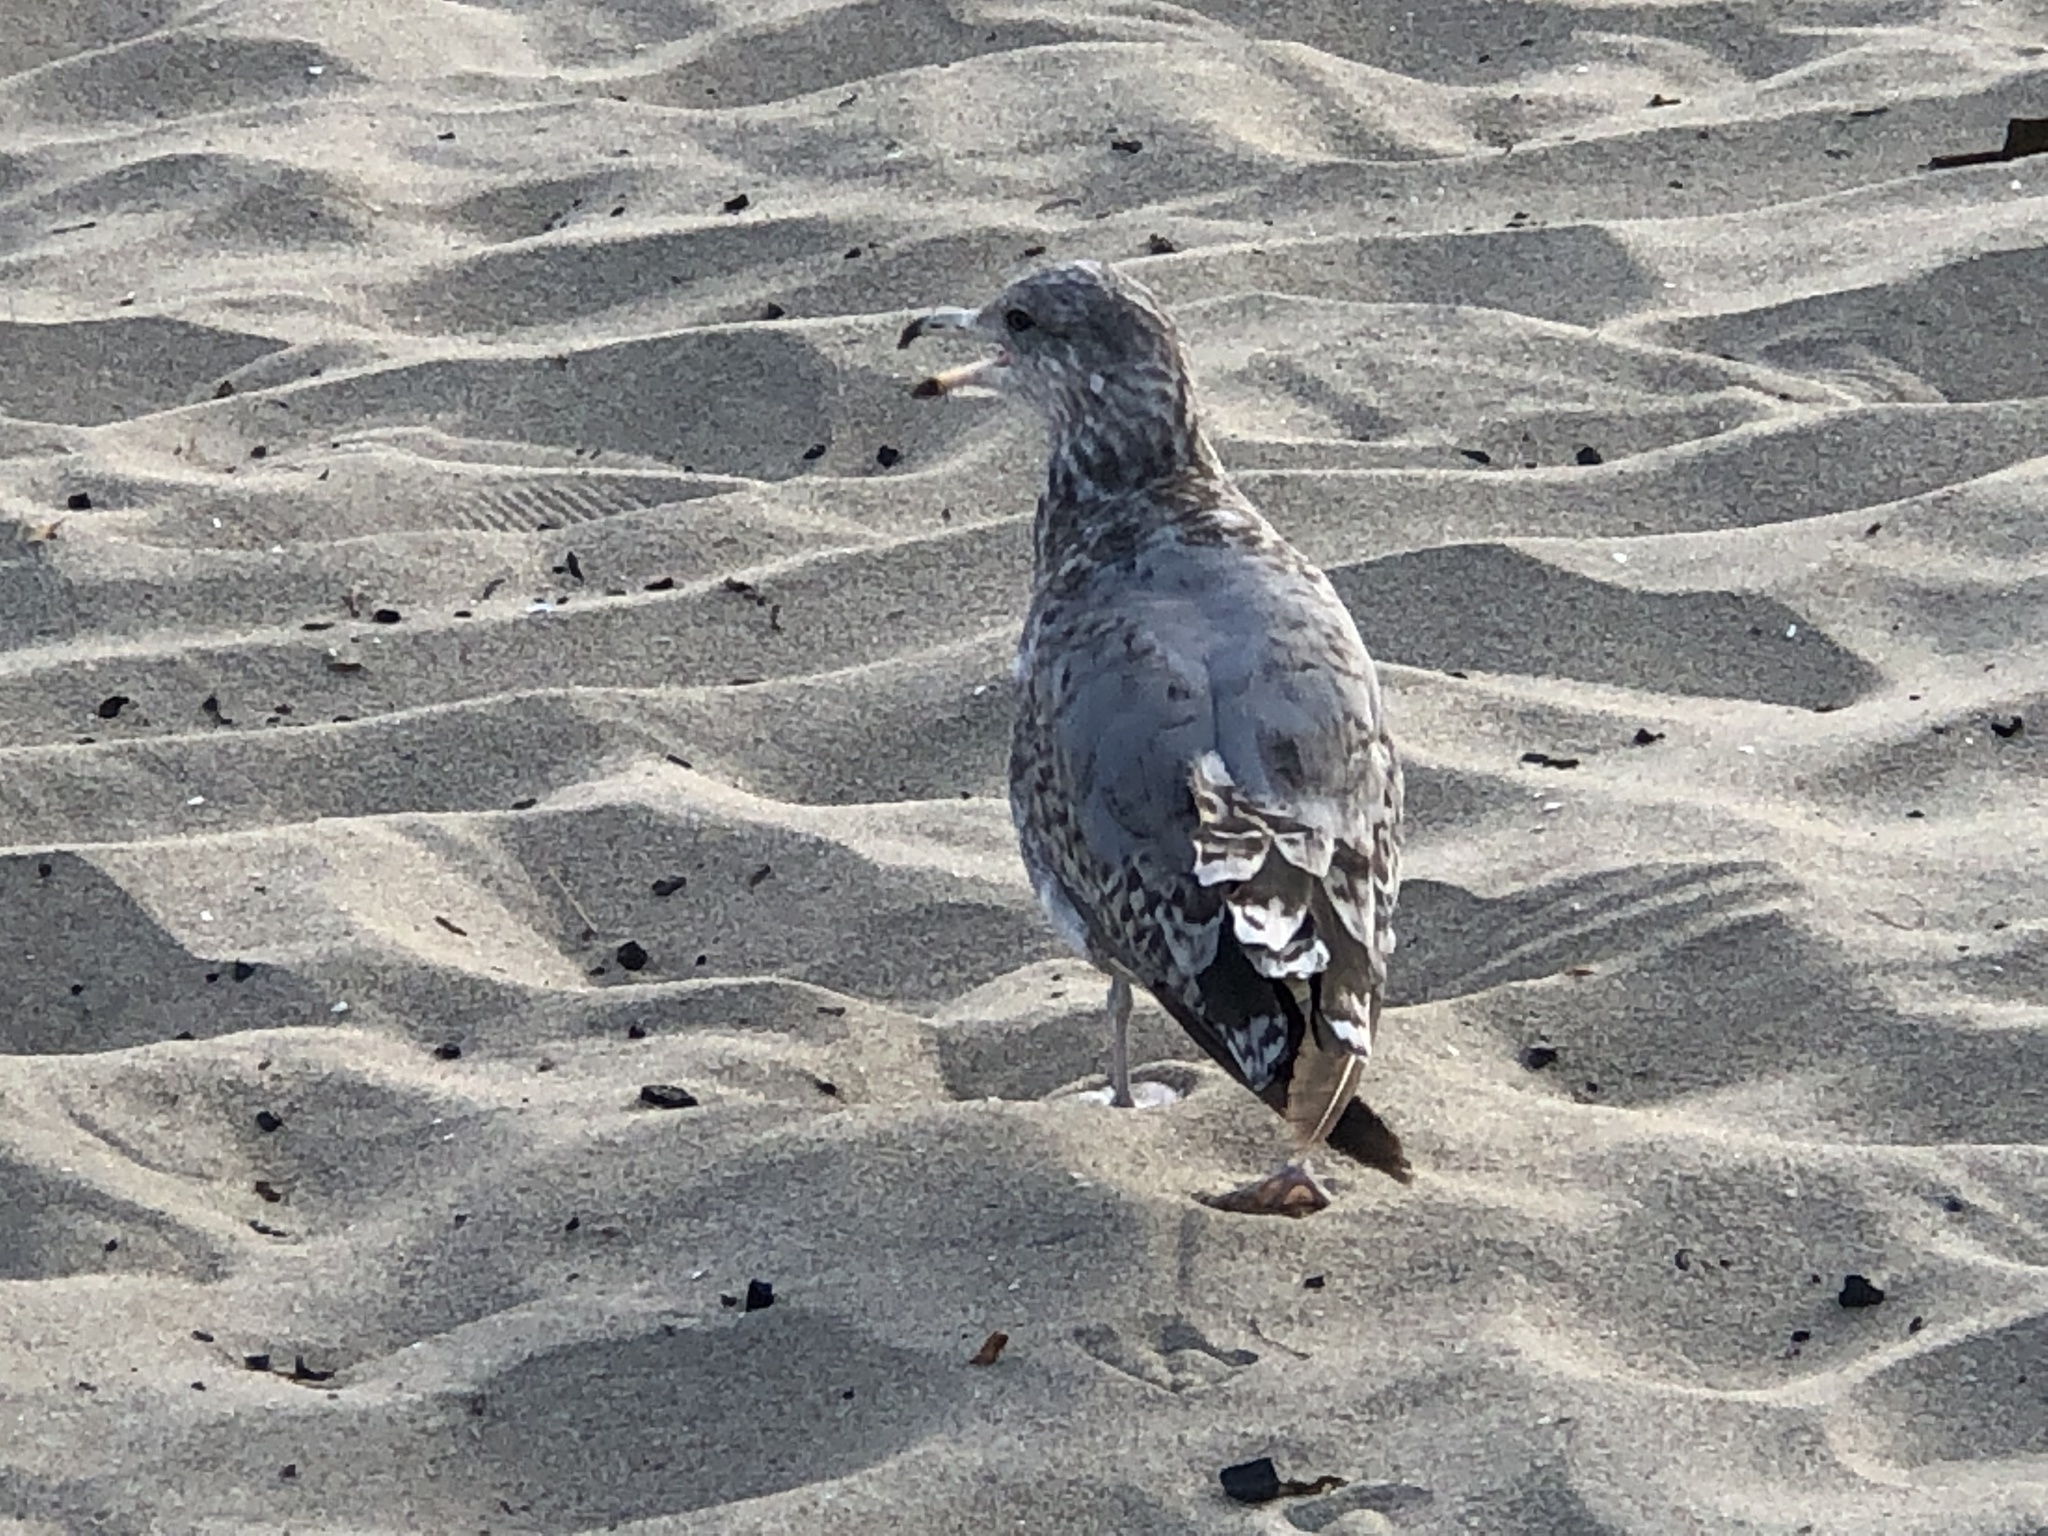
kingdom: Animalia
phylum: Chordata
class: Aves
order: Charadriiformes
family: Laridae
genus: Larus
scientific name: Larus californicus
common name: California gull
